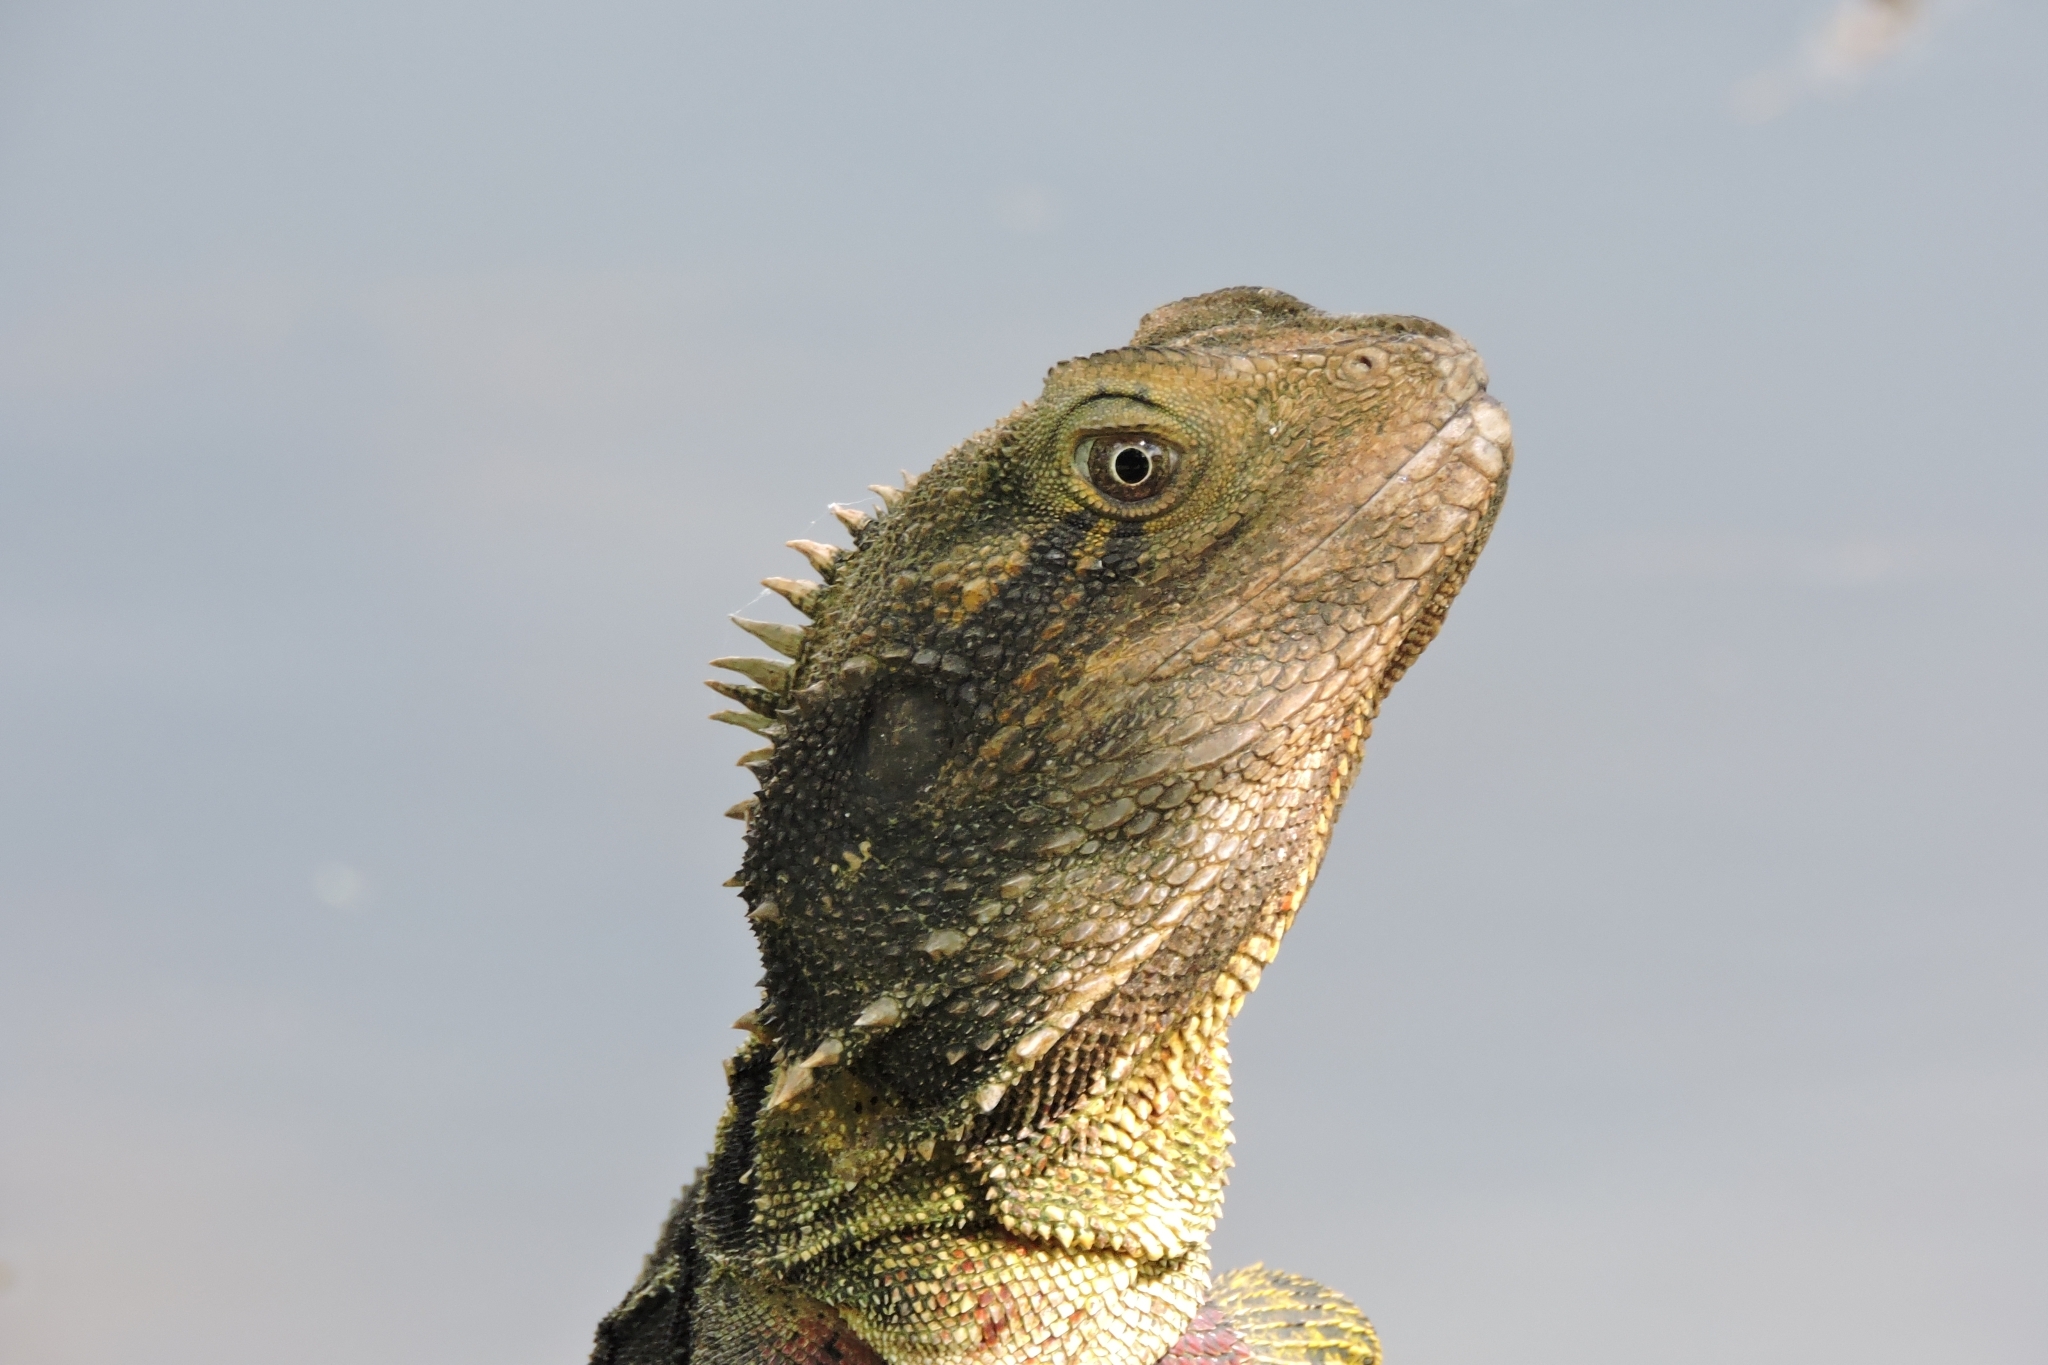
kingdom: Animalia
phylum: Chordata
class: Squamata
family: Agamidae
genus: Intellagama
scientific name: Intellagama lesueurii
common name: Eastern water dragon
